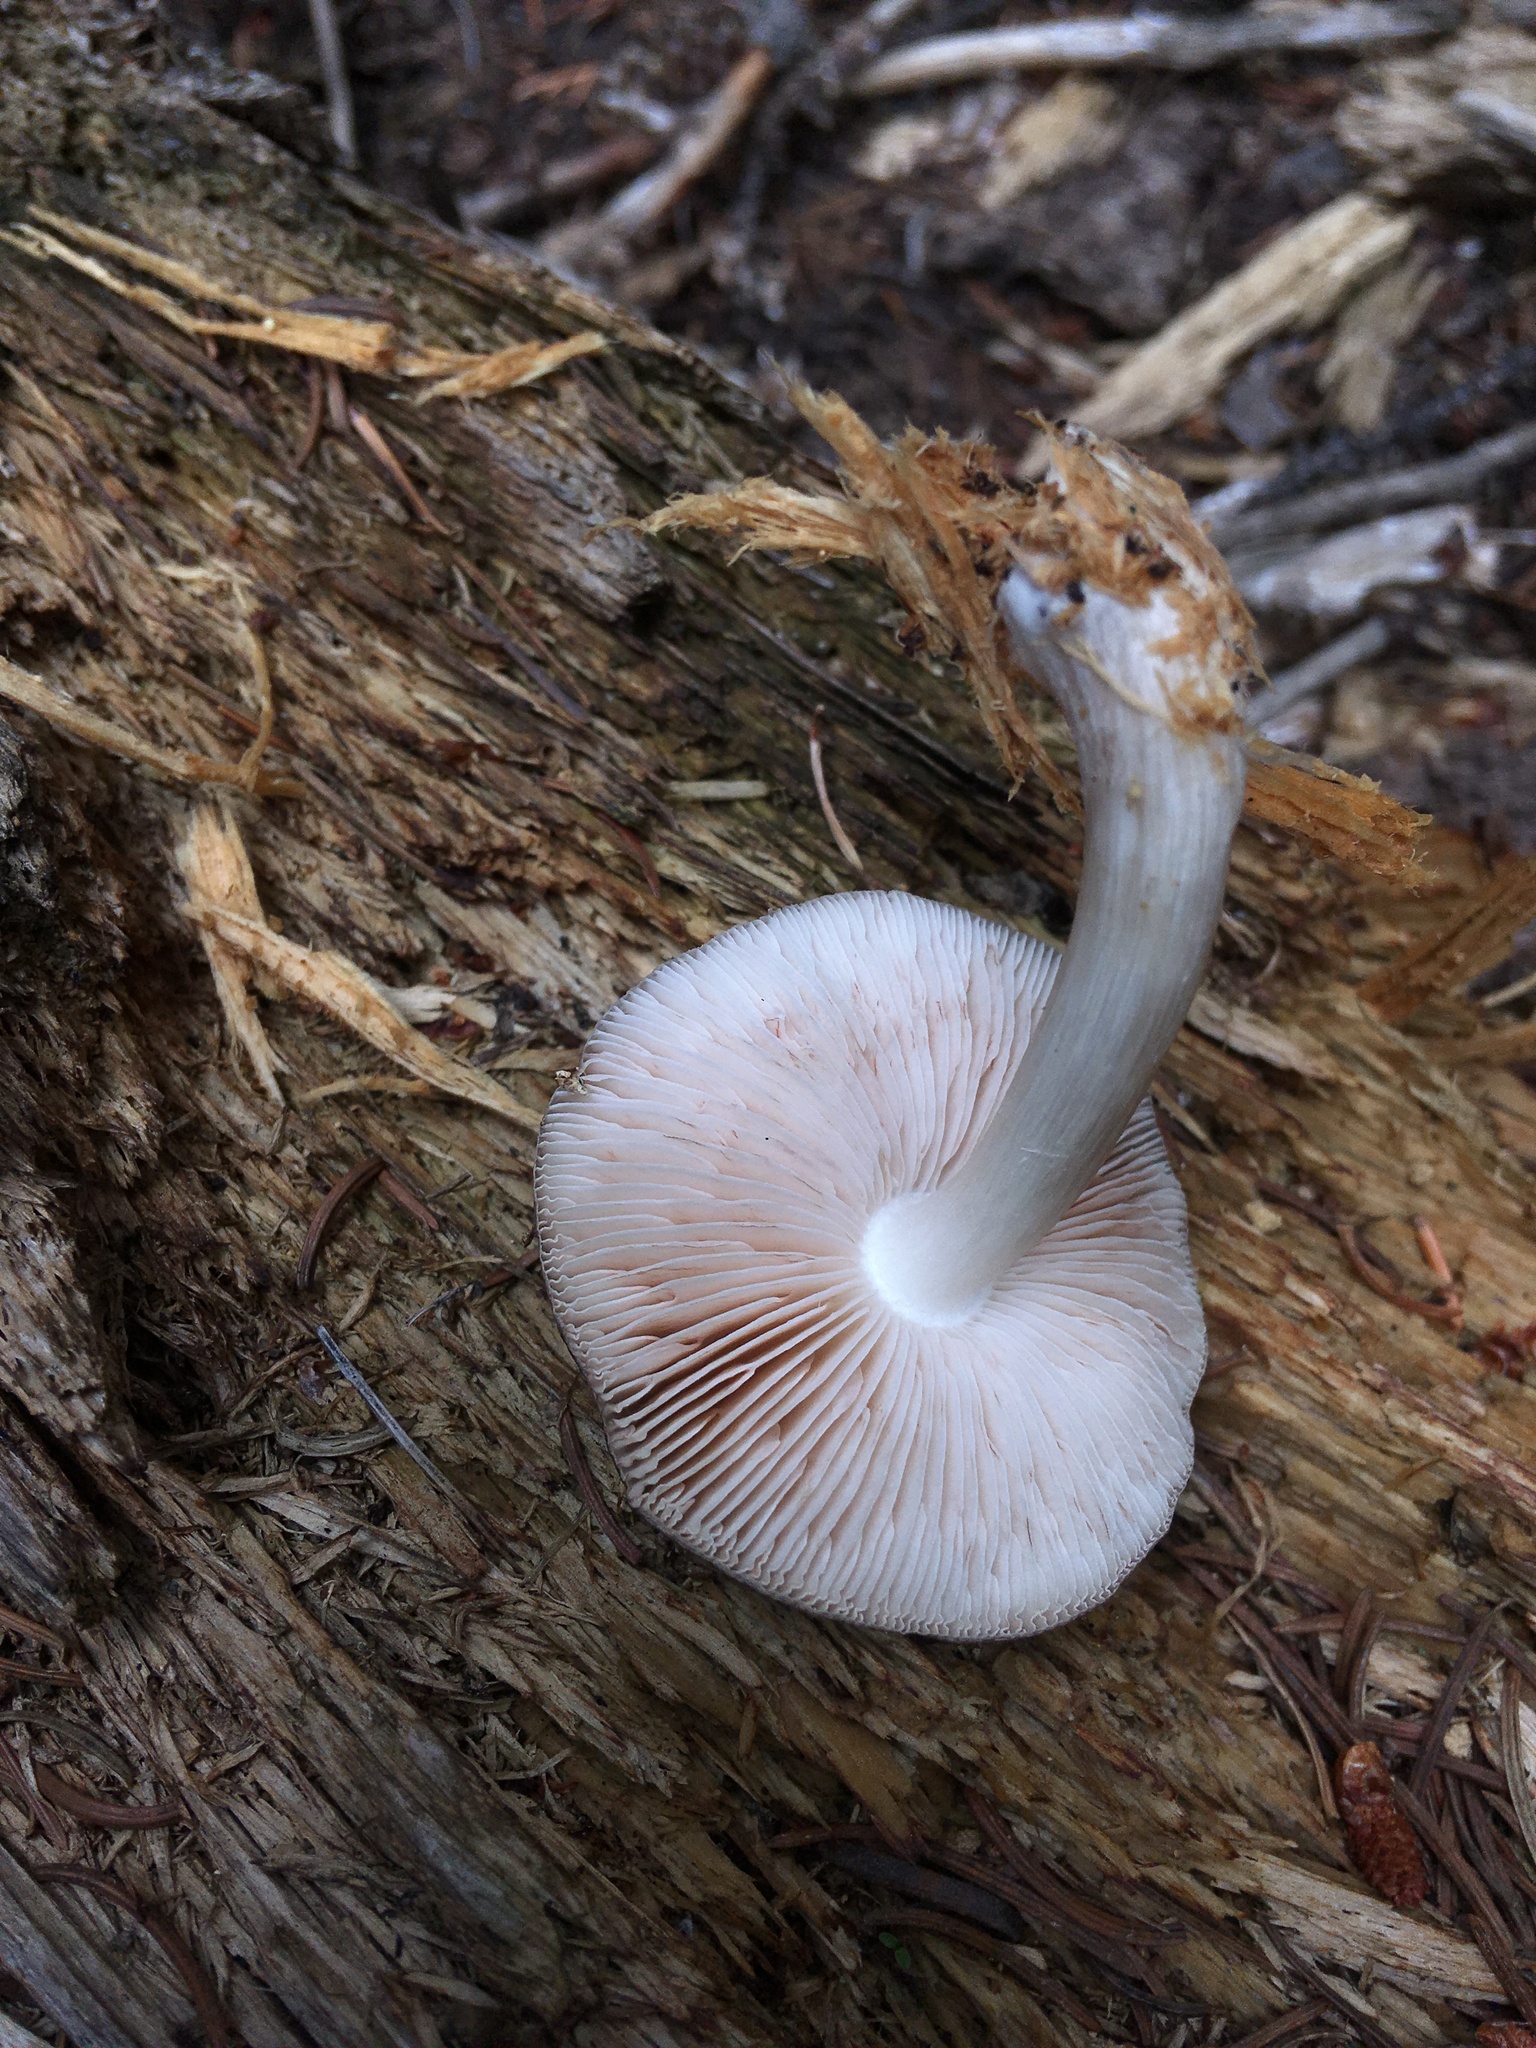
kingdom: Fungi
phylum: Basidiomycota
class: Agaricomycetes
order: Agaricales
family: Pluteaceae
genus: Pluteus
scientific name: Pluteus cervinus
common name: Deer shield
